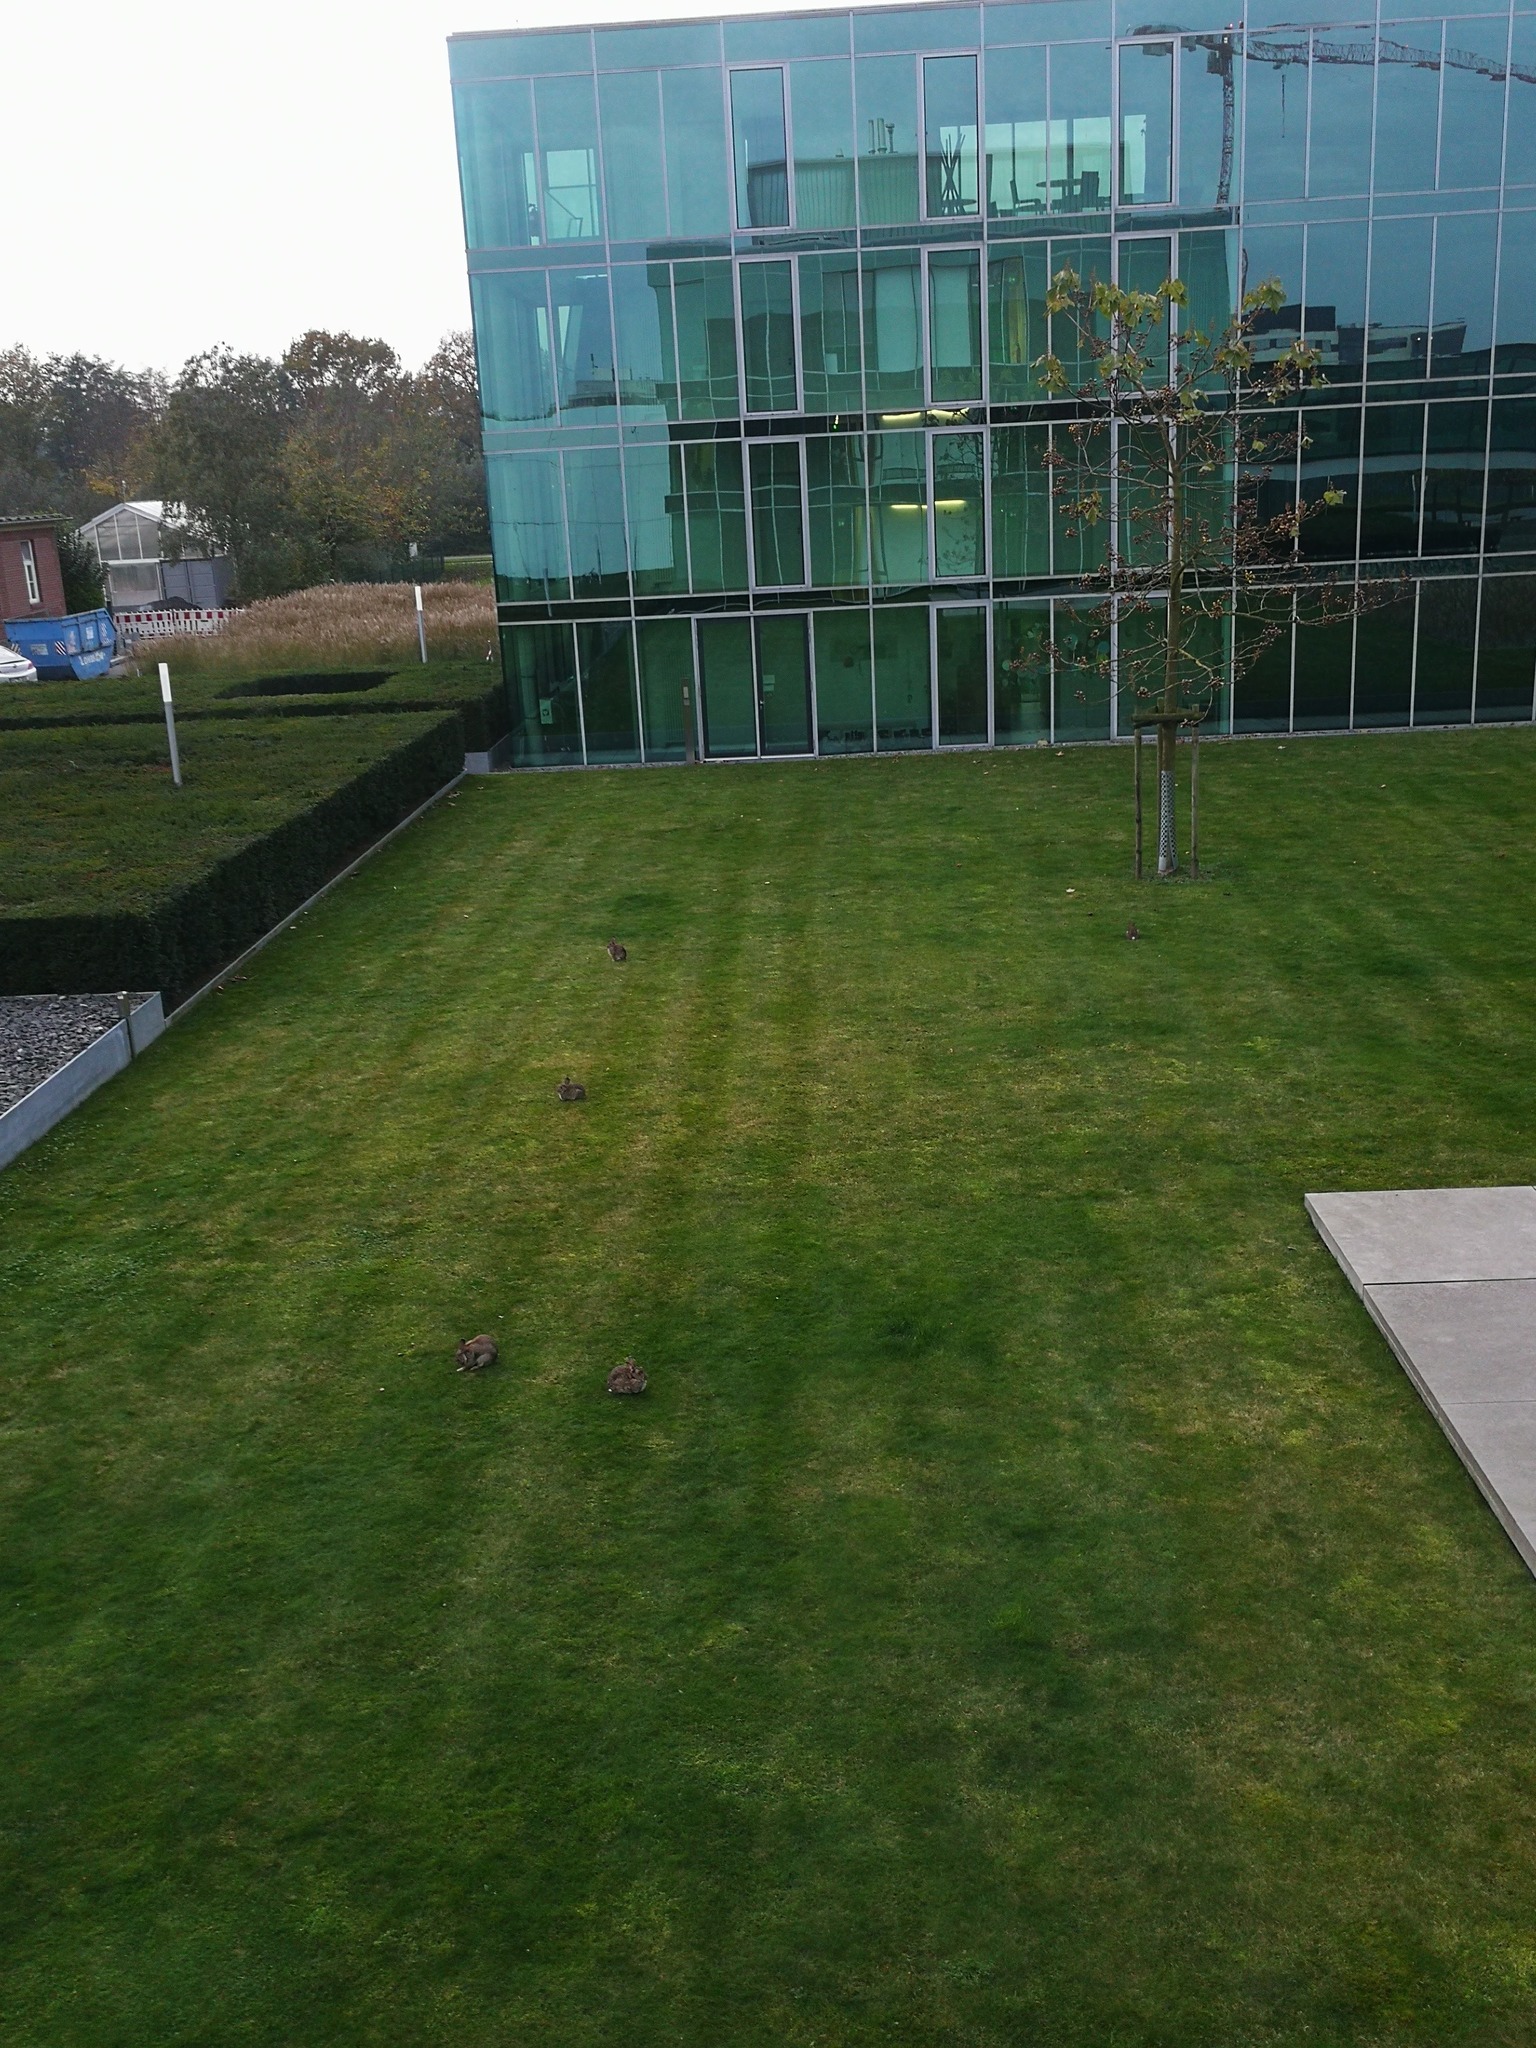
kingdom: Animalia
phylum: Chordata
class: Mammalia
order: Lagomorpha
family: Leporidae
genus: Oryctolagus
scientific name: Oryctolagus cuniculus
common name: European rabbit
